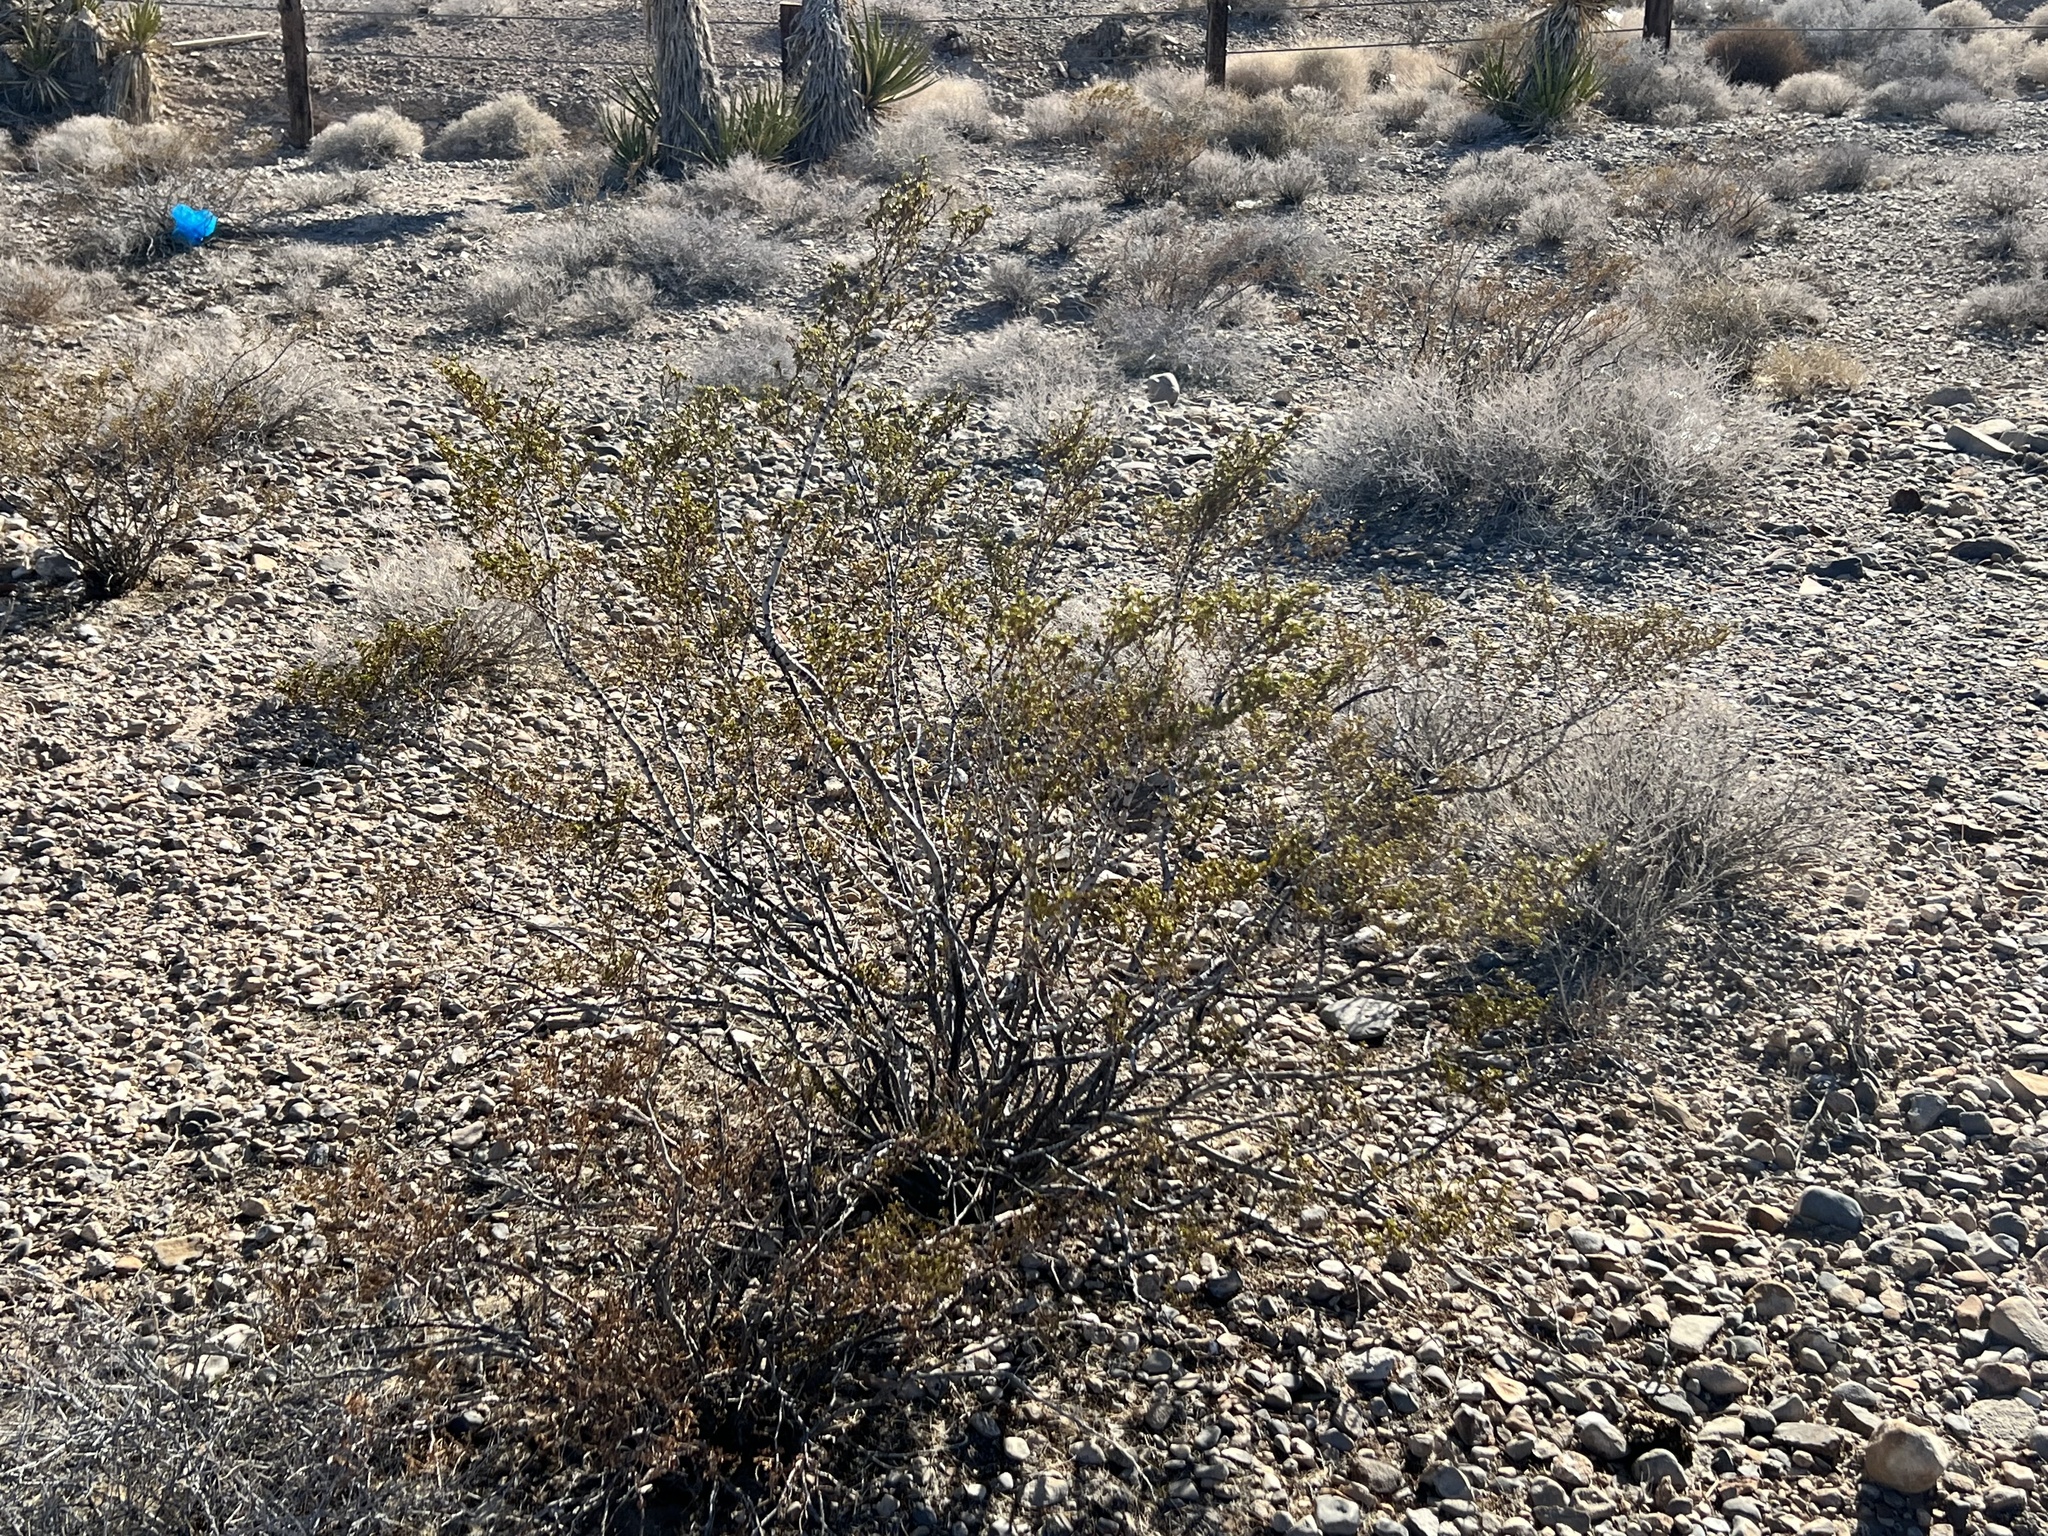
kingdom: Plantae
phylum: Tracheophyta
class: Magnoliopsida
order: Zygophyllales
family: Zygophyllaceae
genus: Larrea
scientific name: Larrea tridentata
